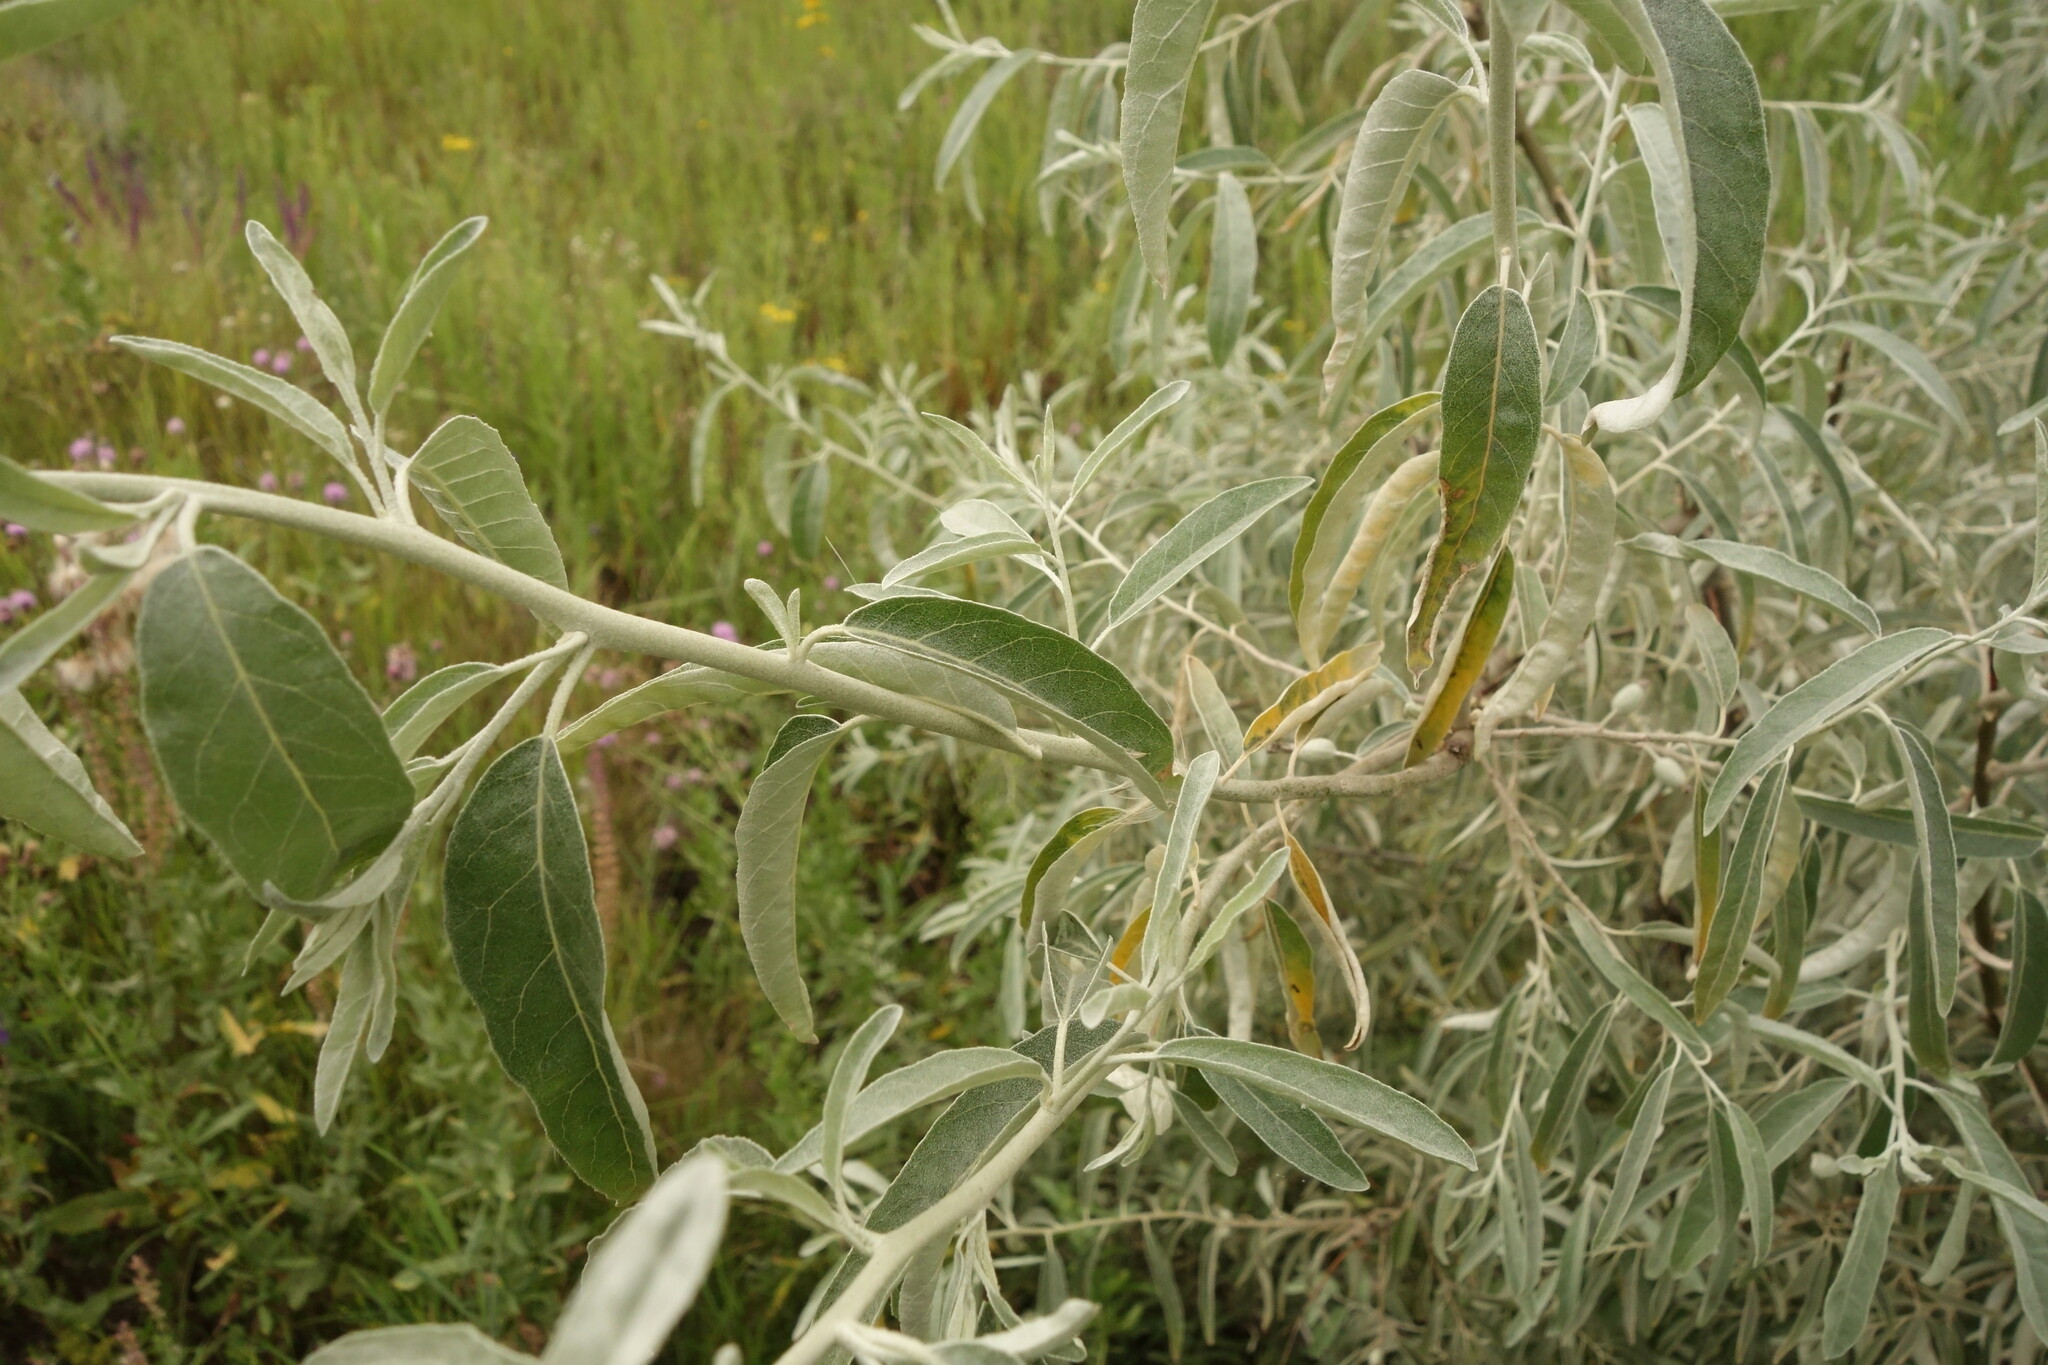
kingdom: Plantae
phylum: Tracheophyta
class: Magnoliopsida
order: Rosales
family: Elaeagnaceae
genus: Elaeagnus
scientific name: Elaeagnus angustifolia
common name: Russian olive
